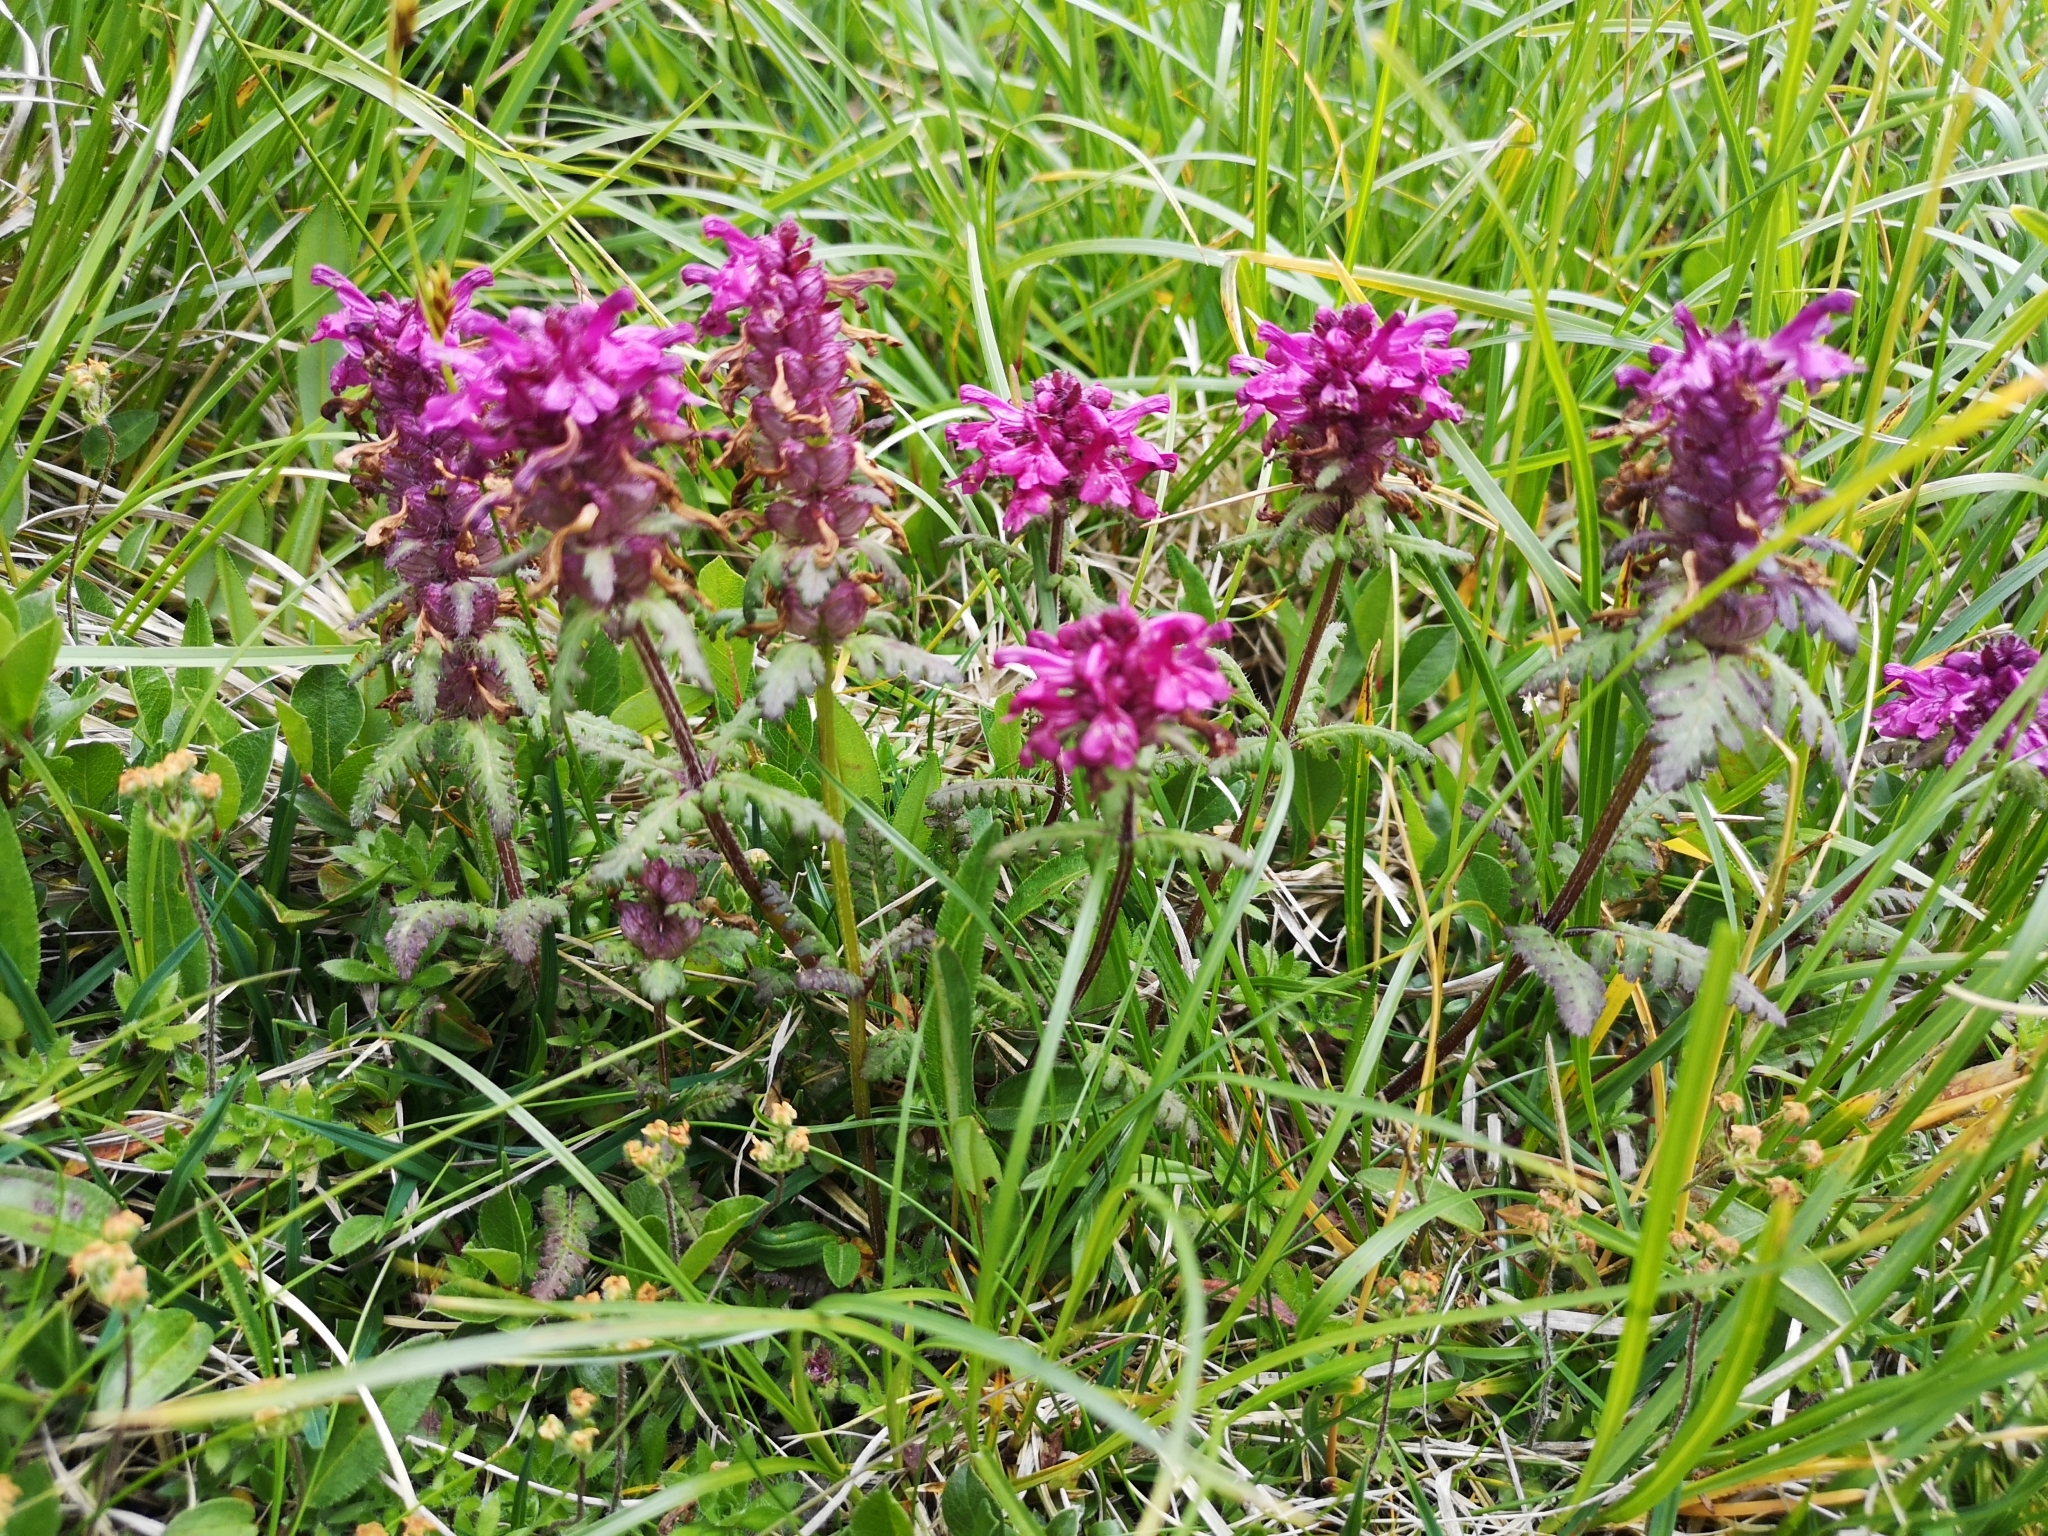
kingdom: Plantae
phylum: Tracheophyta
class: Magnoliopsida
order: Lamiales
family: Orobanchaceae
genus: Pedicularis
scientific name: Pedicularis verticillata
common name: Whorled lousewort
